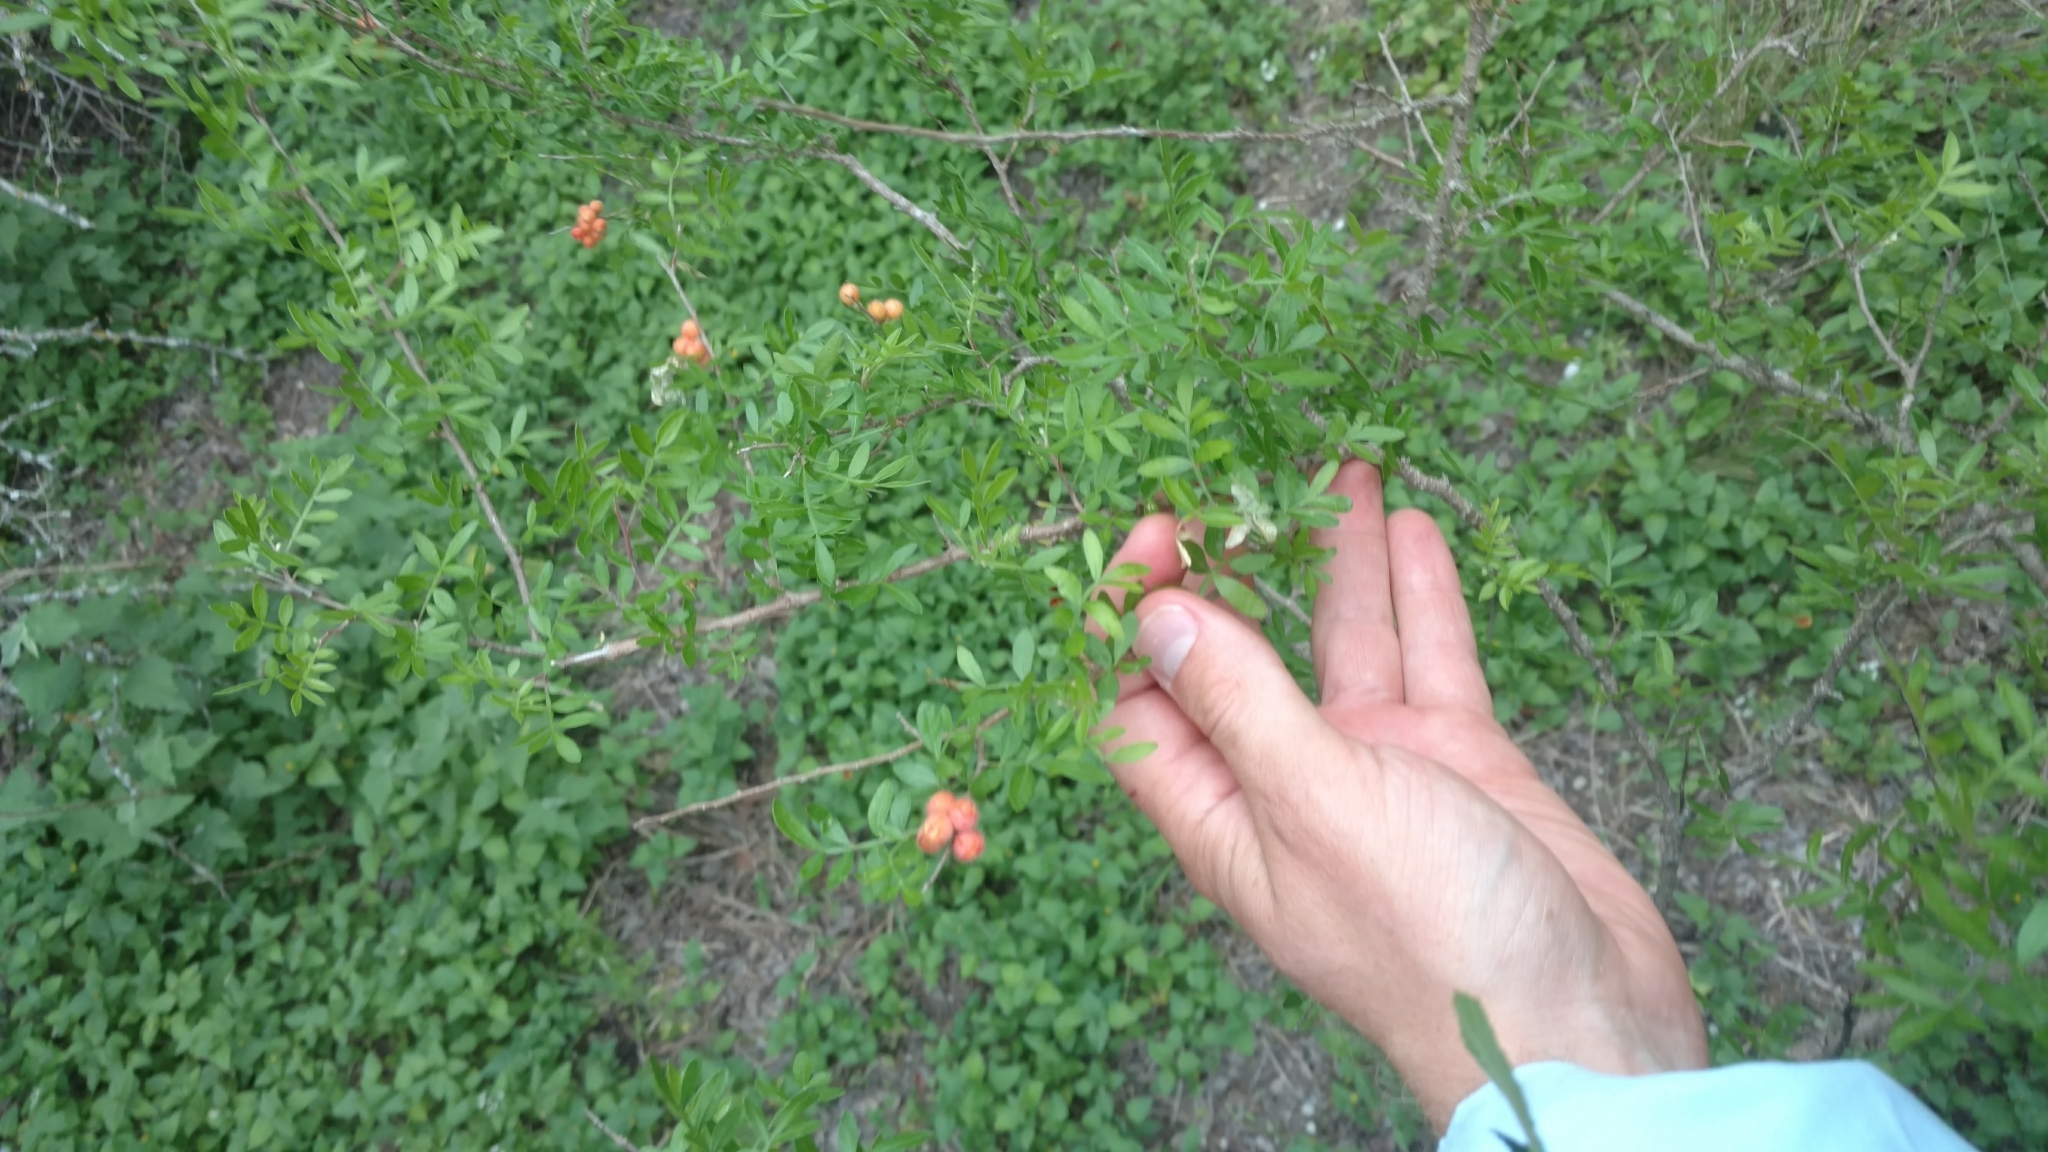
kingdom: Plantae
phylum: Tracheophyta
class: Magnoliopsida
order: Sapindales
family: Anacardiaceae
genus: Rhus
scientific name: Rhus microphylla
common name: Desert sumac
